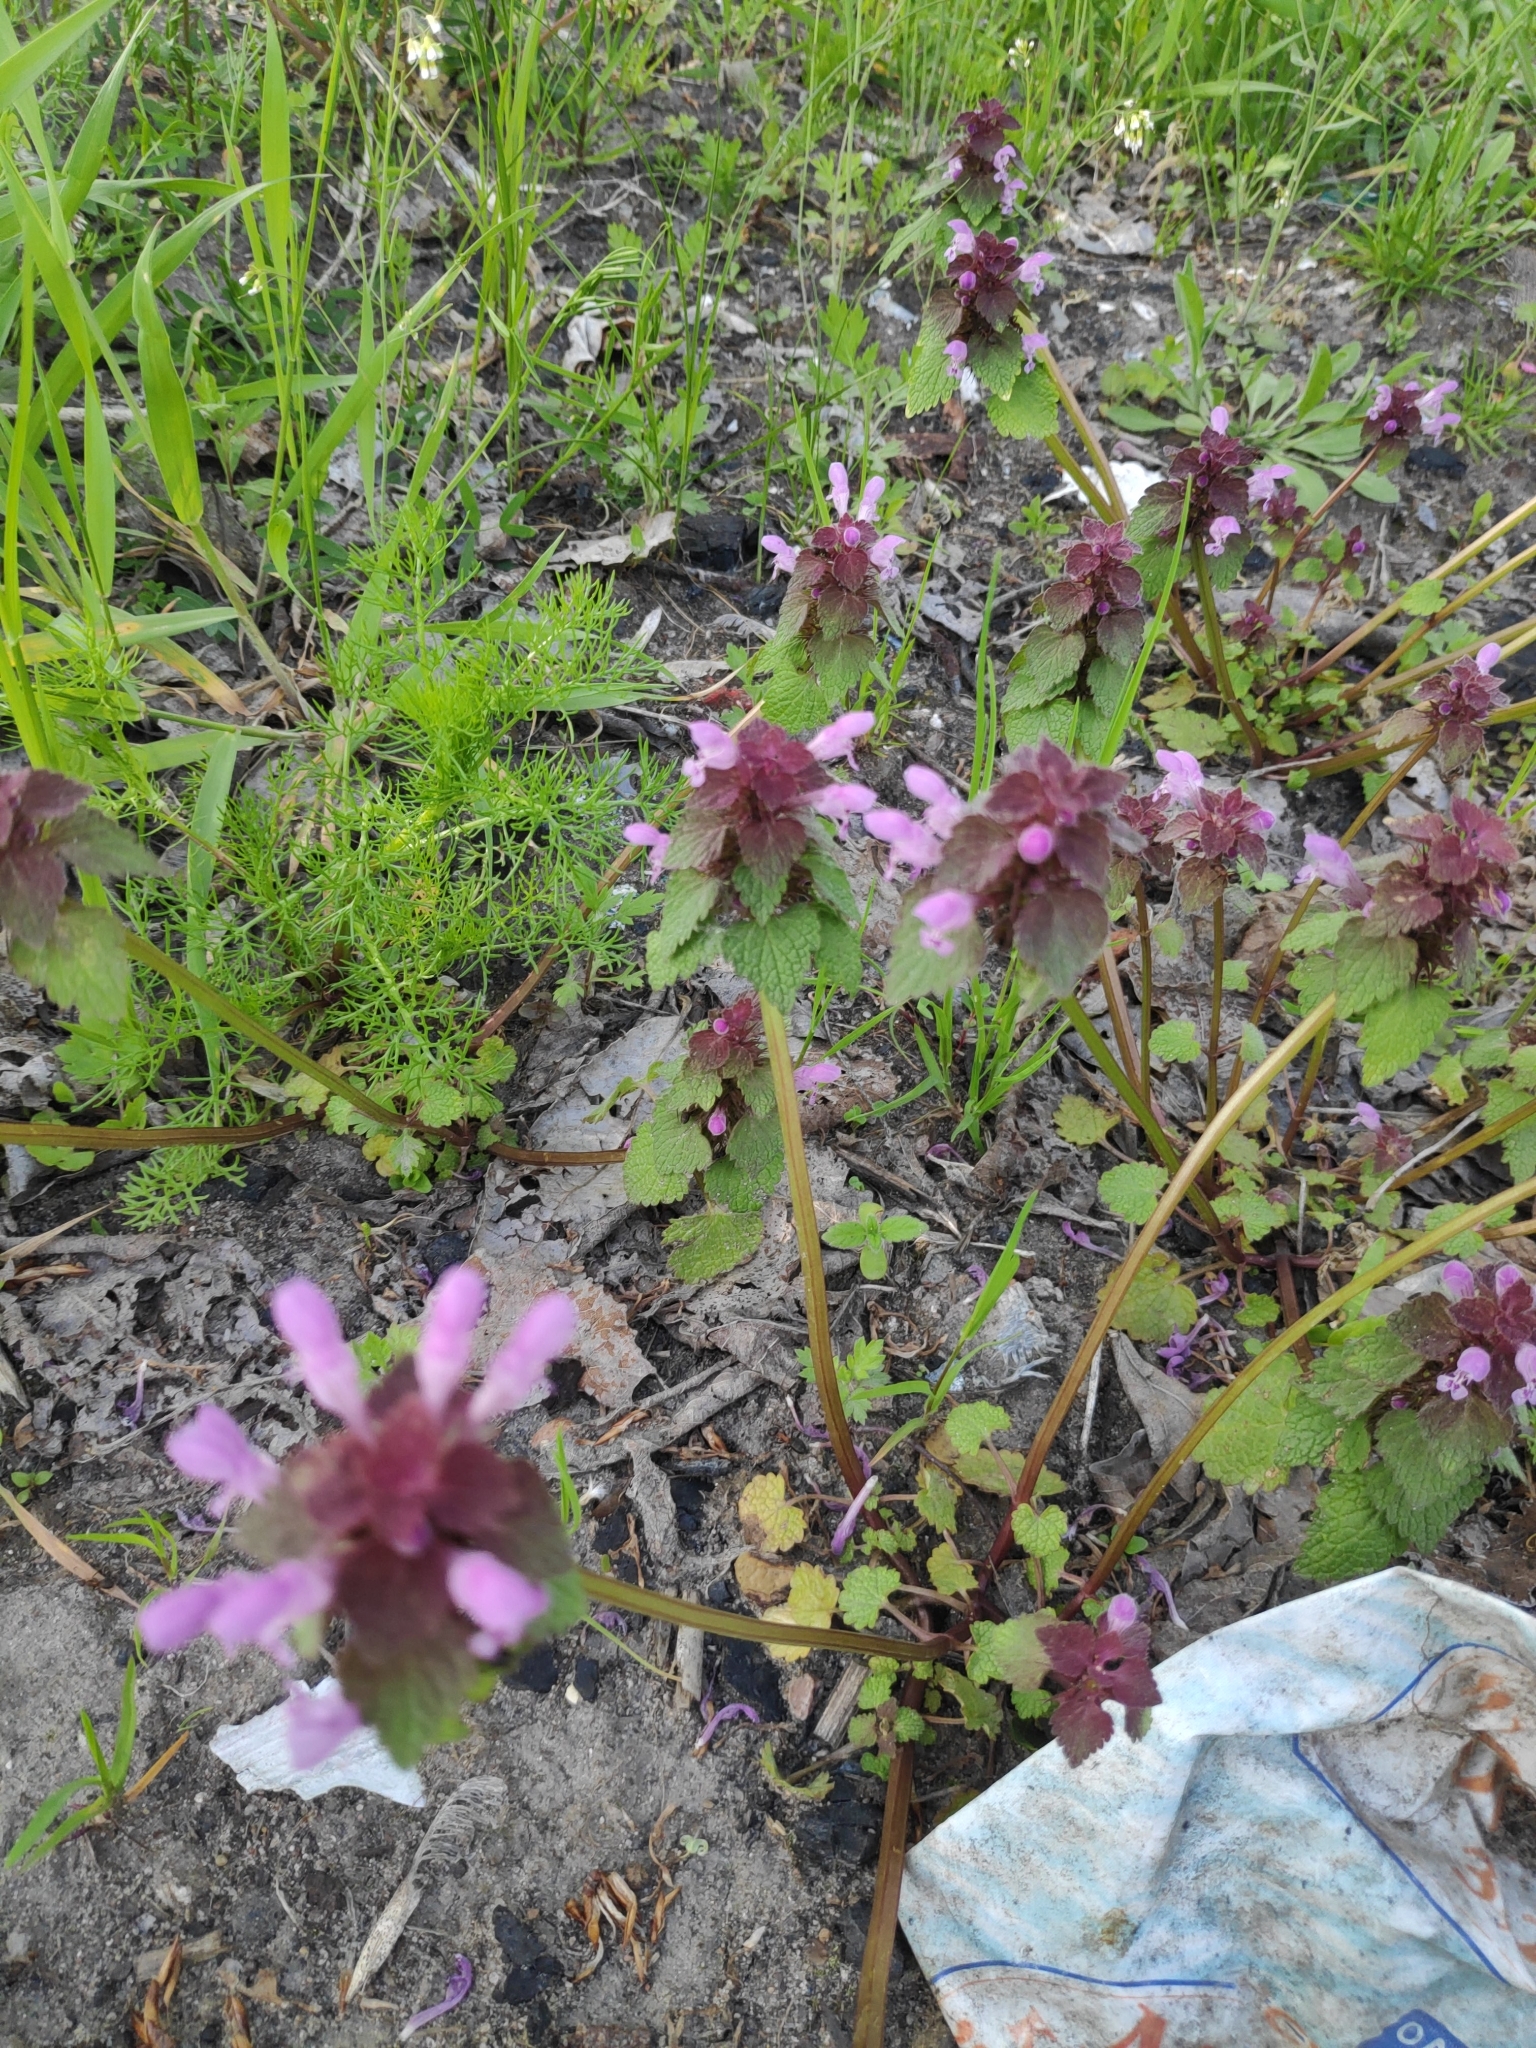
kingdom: Plantae
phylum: Tracheophyta
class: Magnoliopsida
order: Lamiales
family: Lamiaceae
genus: Lamium
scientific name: Lamium purpureum
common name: Red dead-nettle
